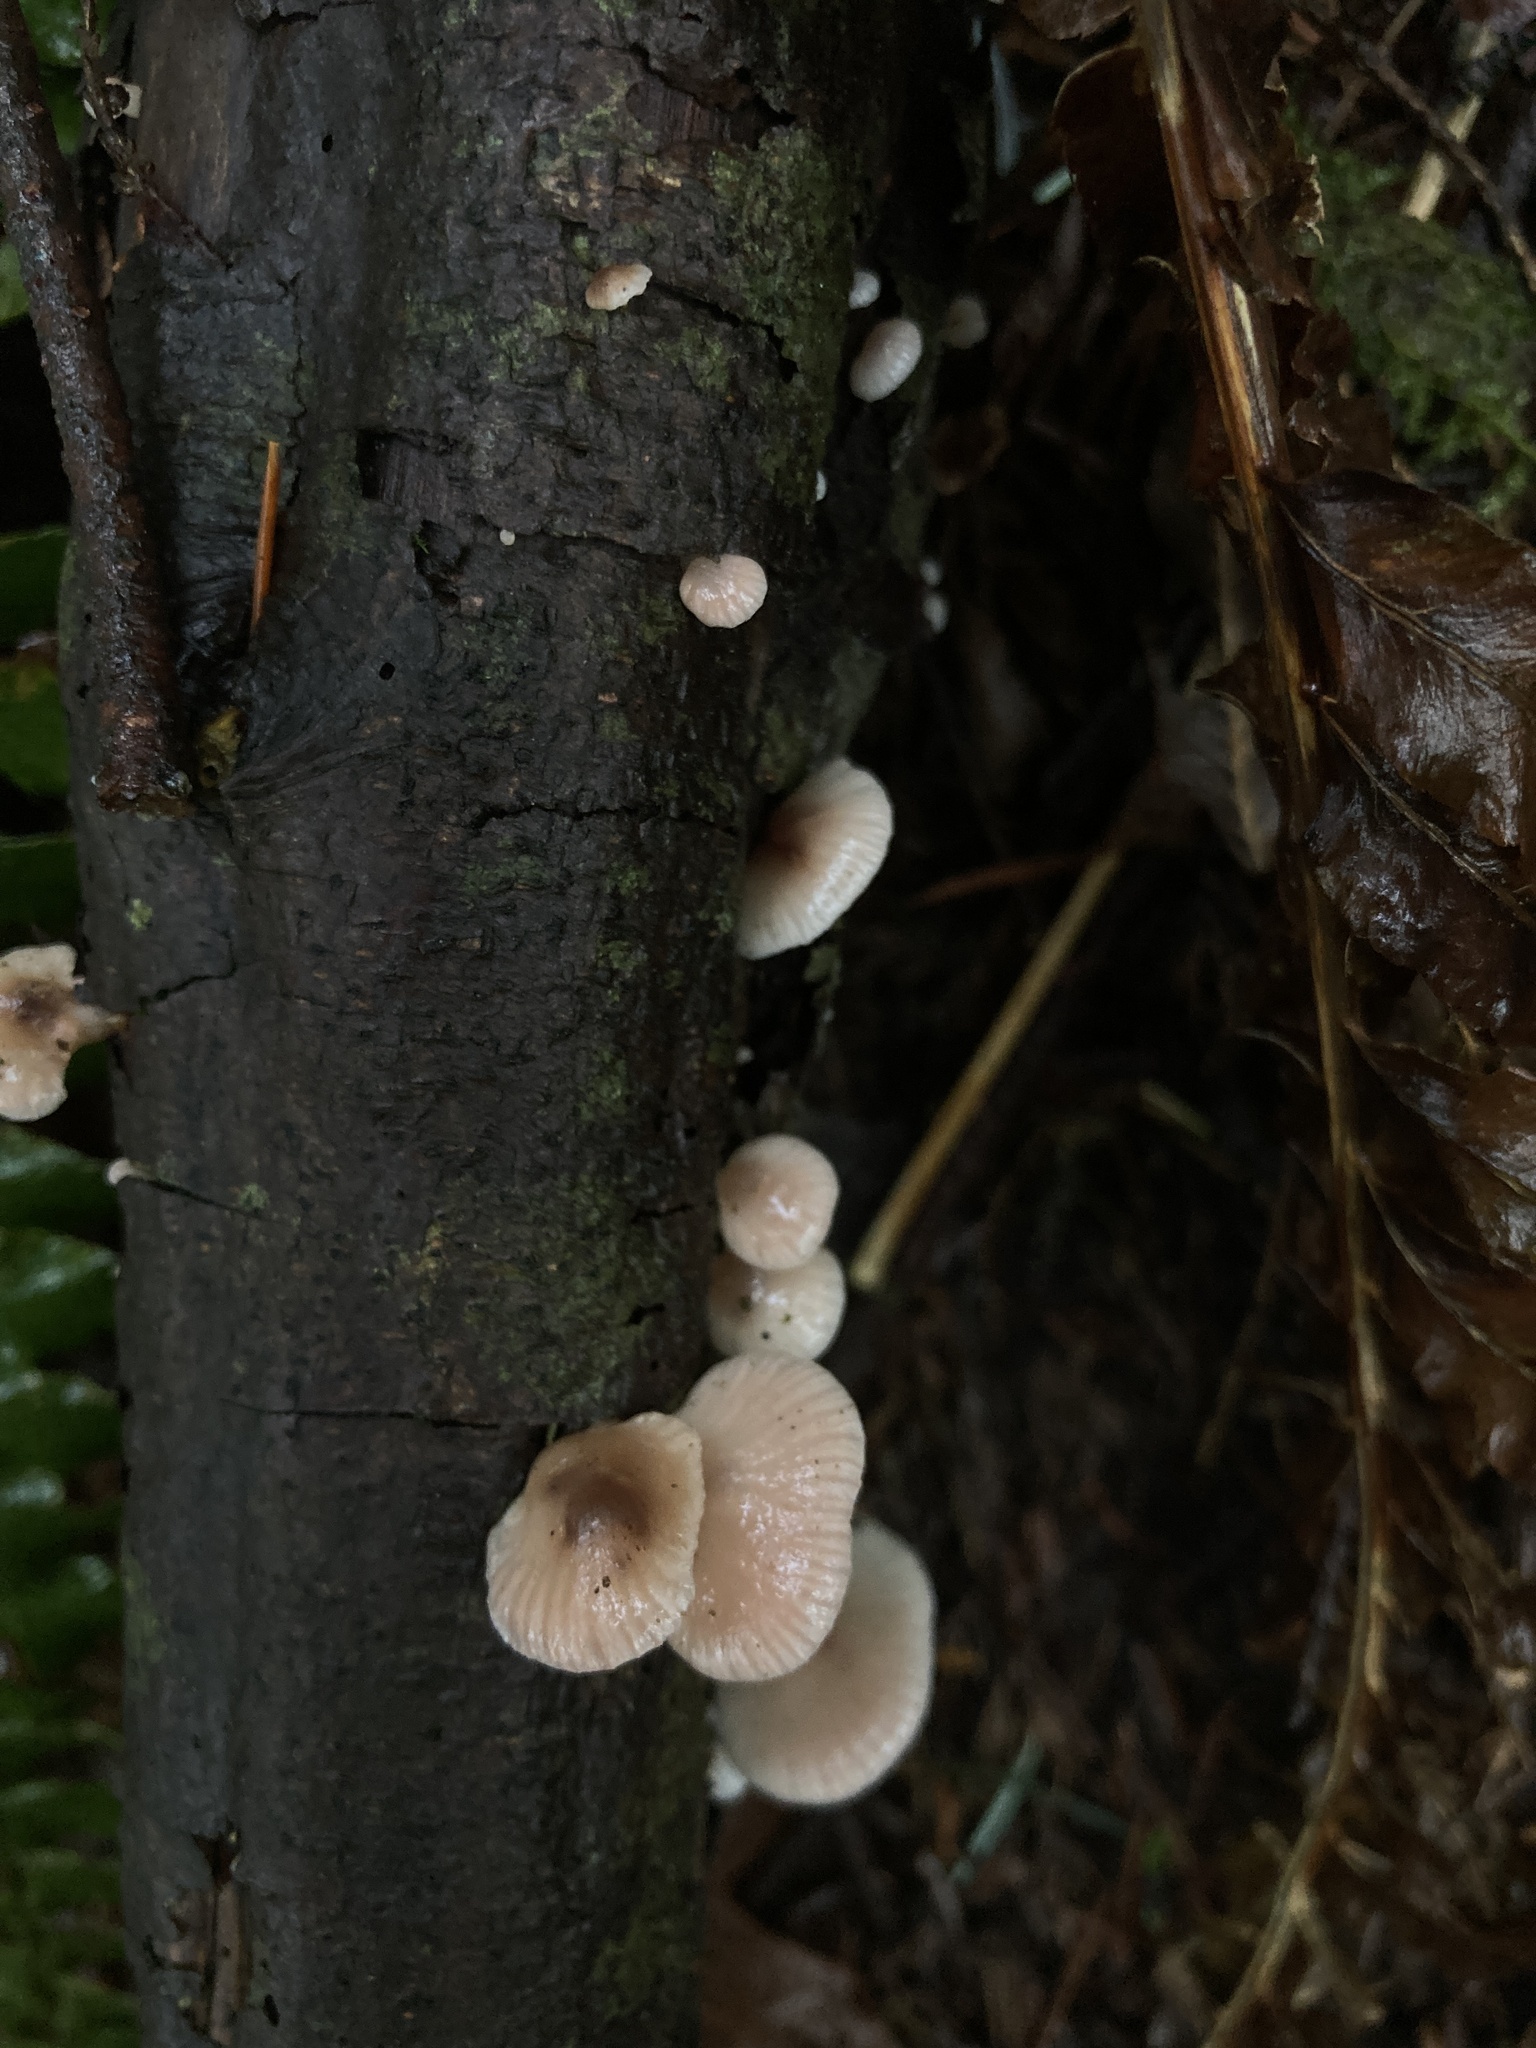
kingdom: Fungi
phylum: Basidiomycota
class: Agaricomycetes
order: Agaricales
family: Mycenaceae
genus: Panellus
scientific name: Panellus longinquus
